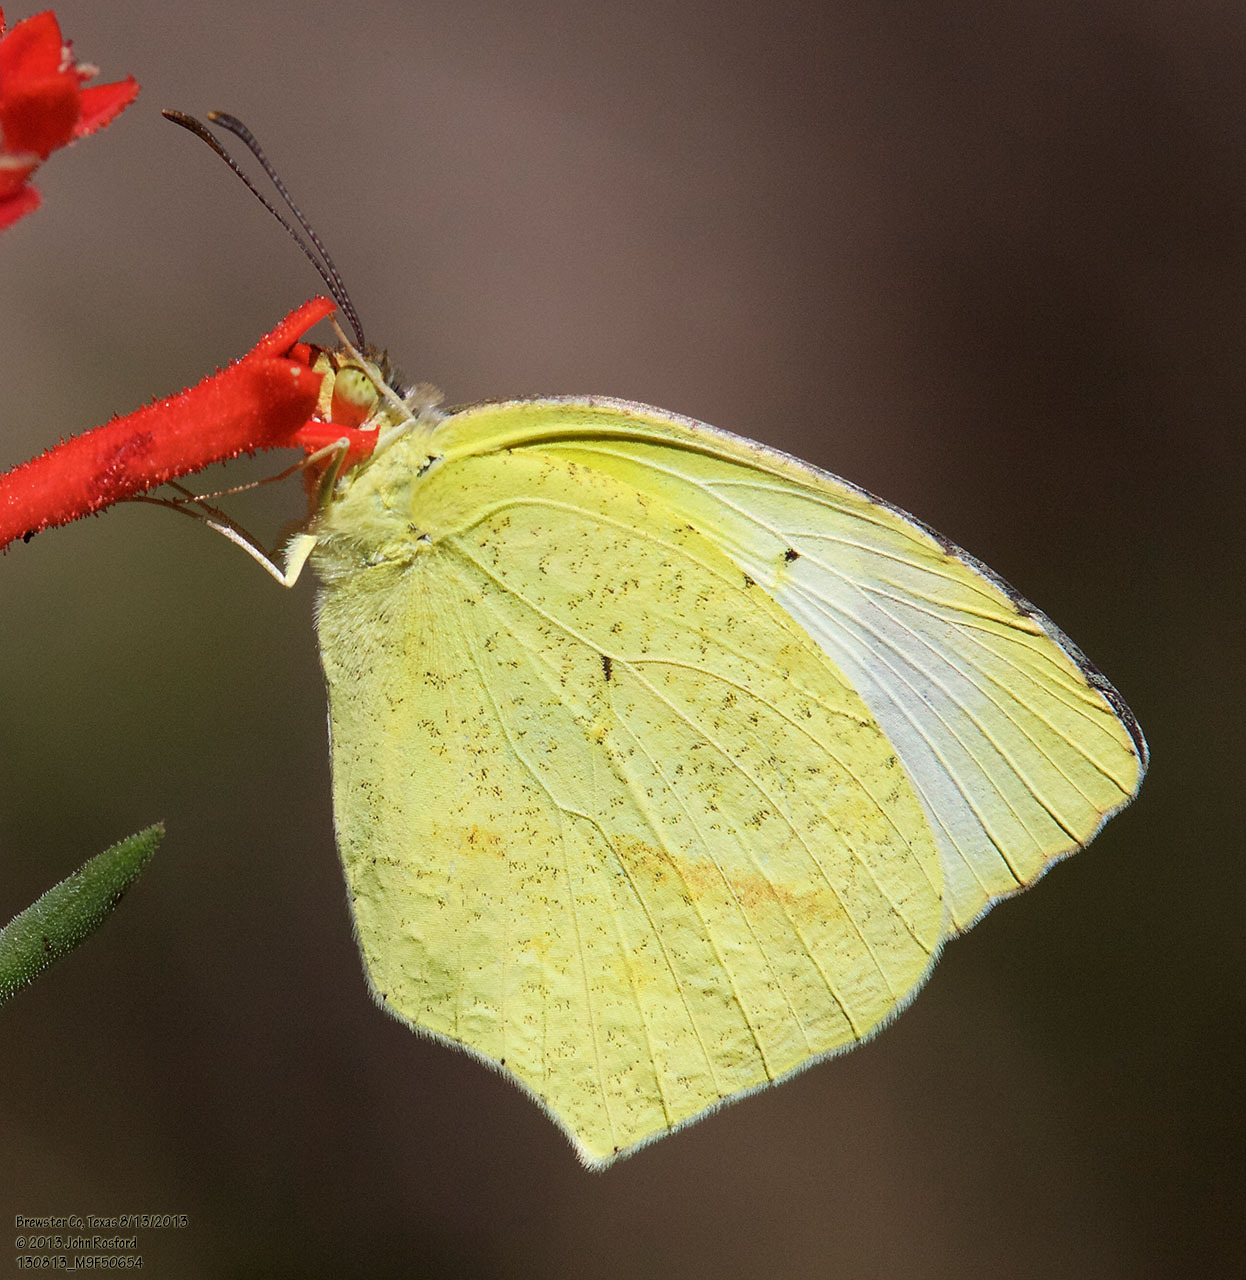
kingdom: Animalia
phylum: Arthropoda
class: Insecta
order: Lepidoptera
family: Pieridae
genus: Abaeis
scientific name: Abaeis mexicana
